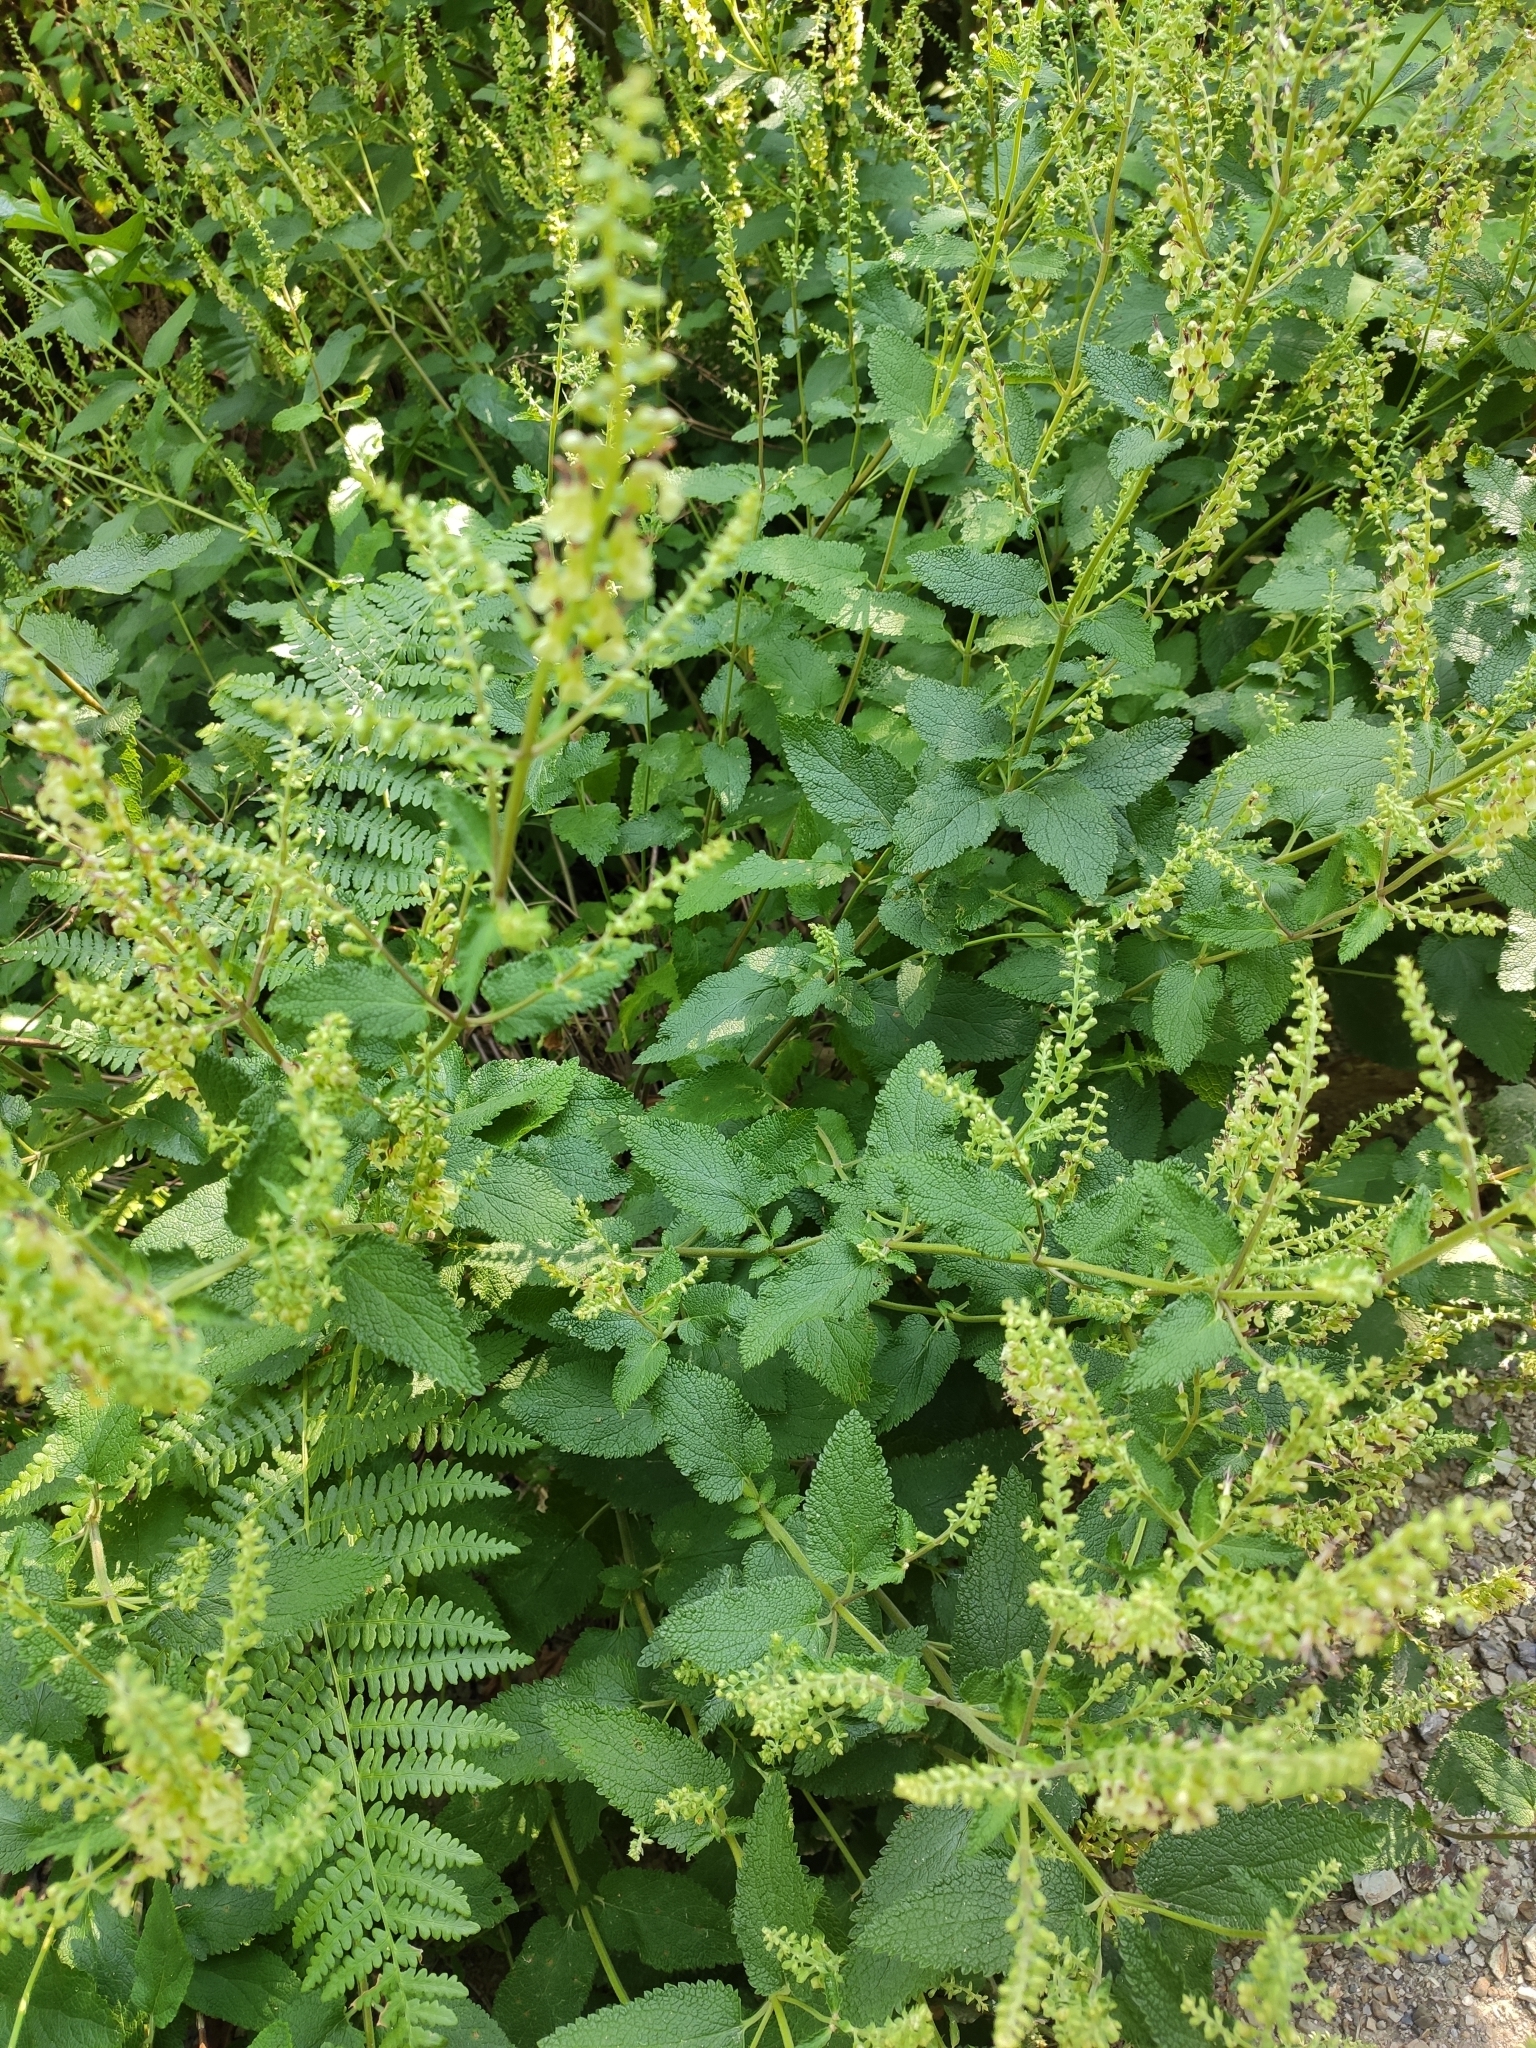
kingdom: Plantae
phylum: Tracheophyta
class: Magnoliopsida
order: Lamiales
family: Lamiaceae
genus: Teucrium
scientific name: Teucrium scorodonia
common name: Woodland germander
